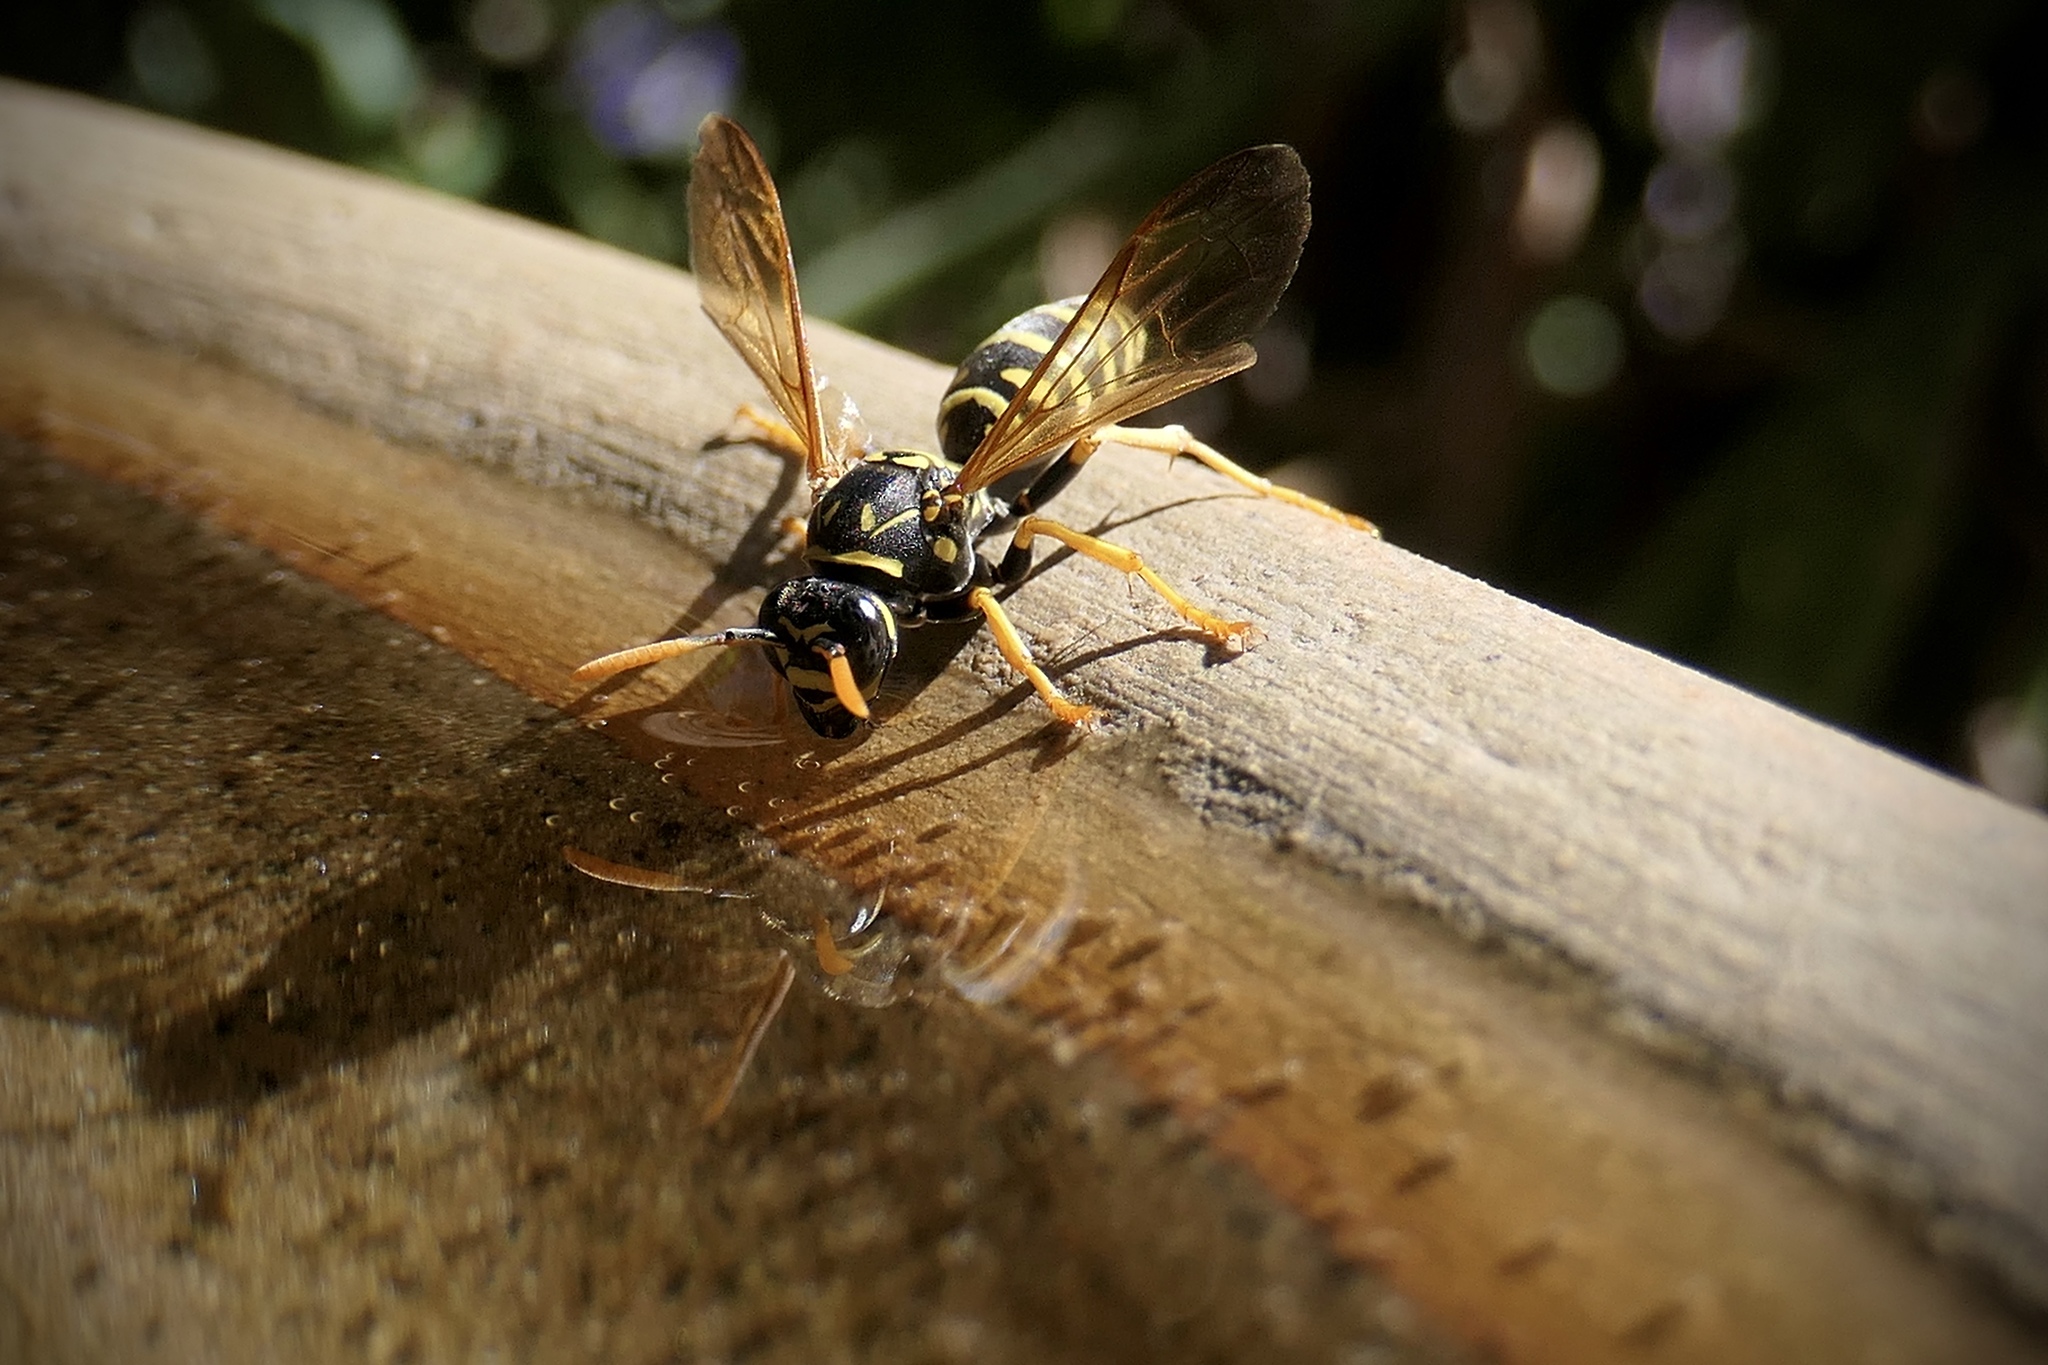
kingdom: Animalia
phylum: Arthropoda
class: Insecta
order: Hymenoptera
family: Eumenidae
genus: Polistes
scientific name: Polistes dominula
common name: Paper wasp
